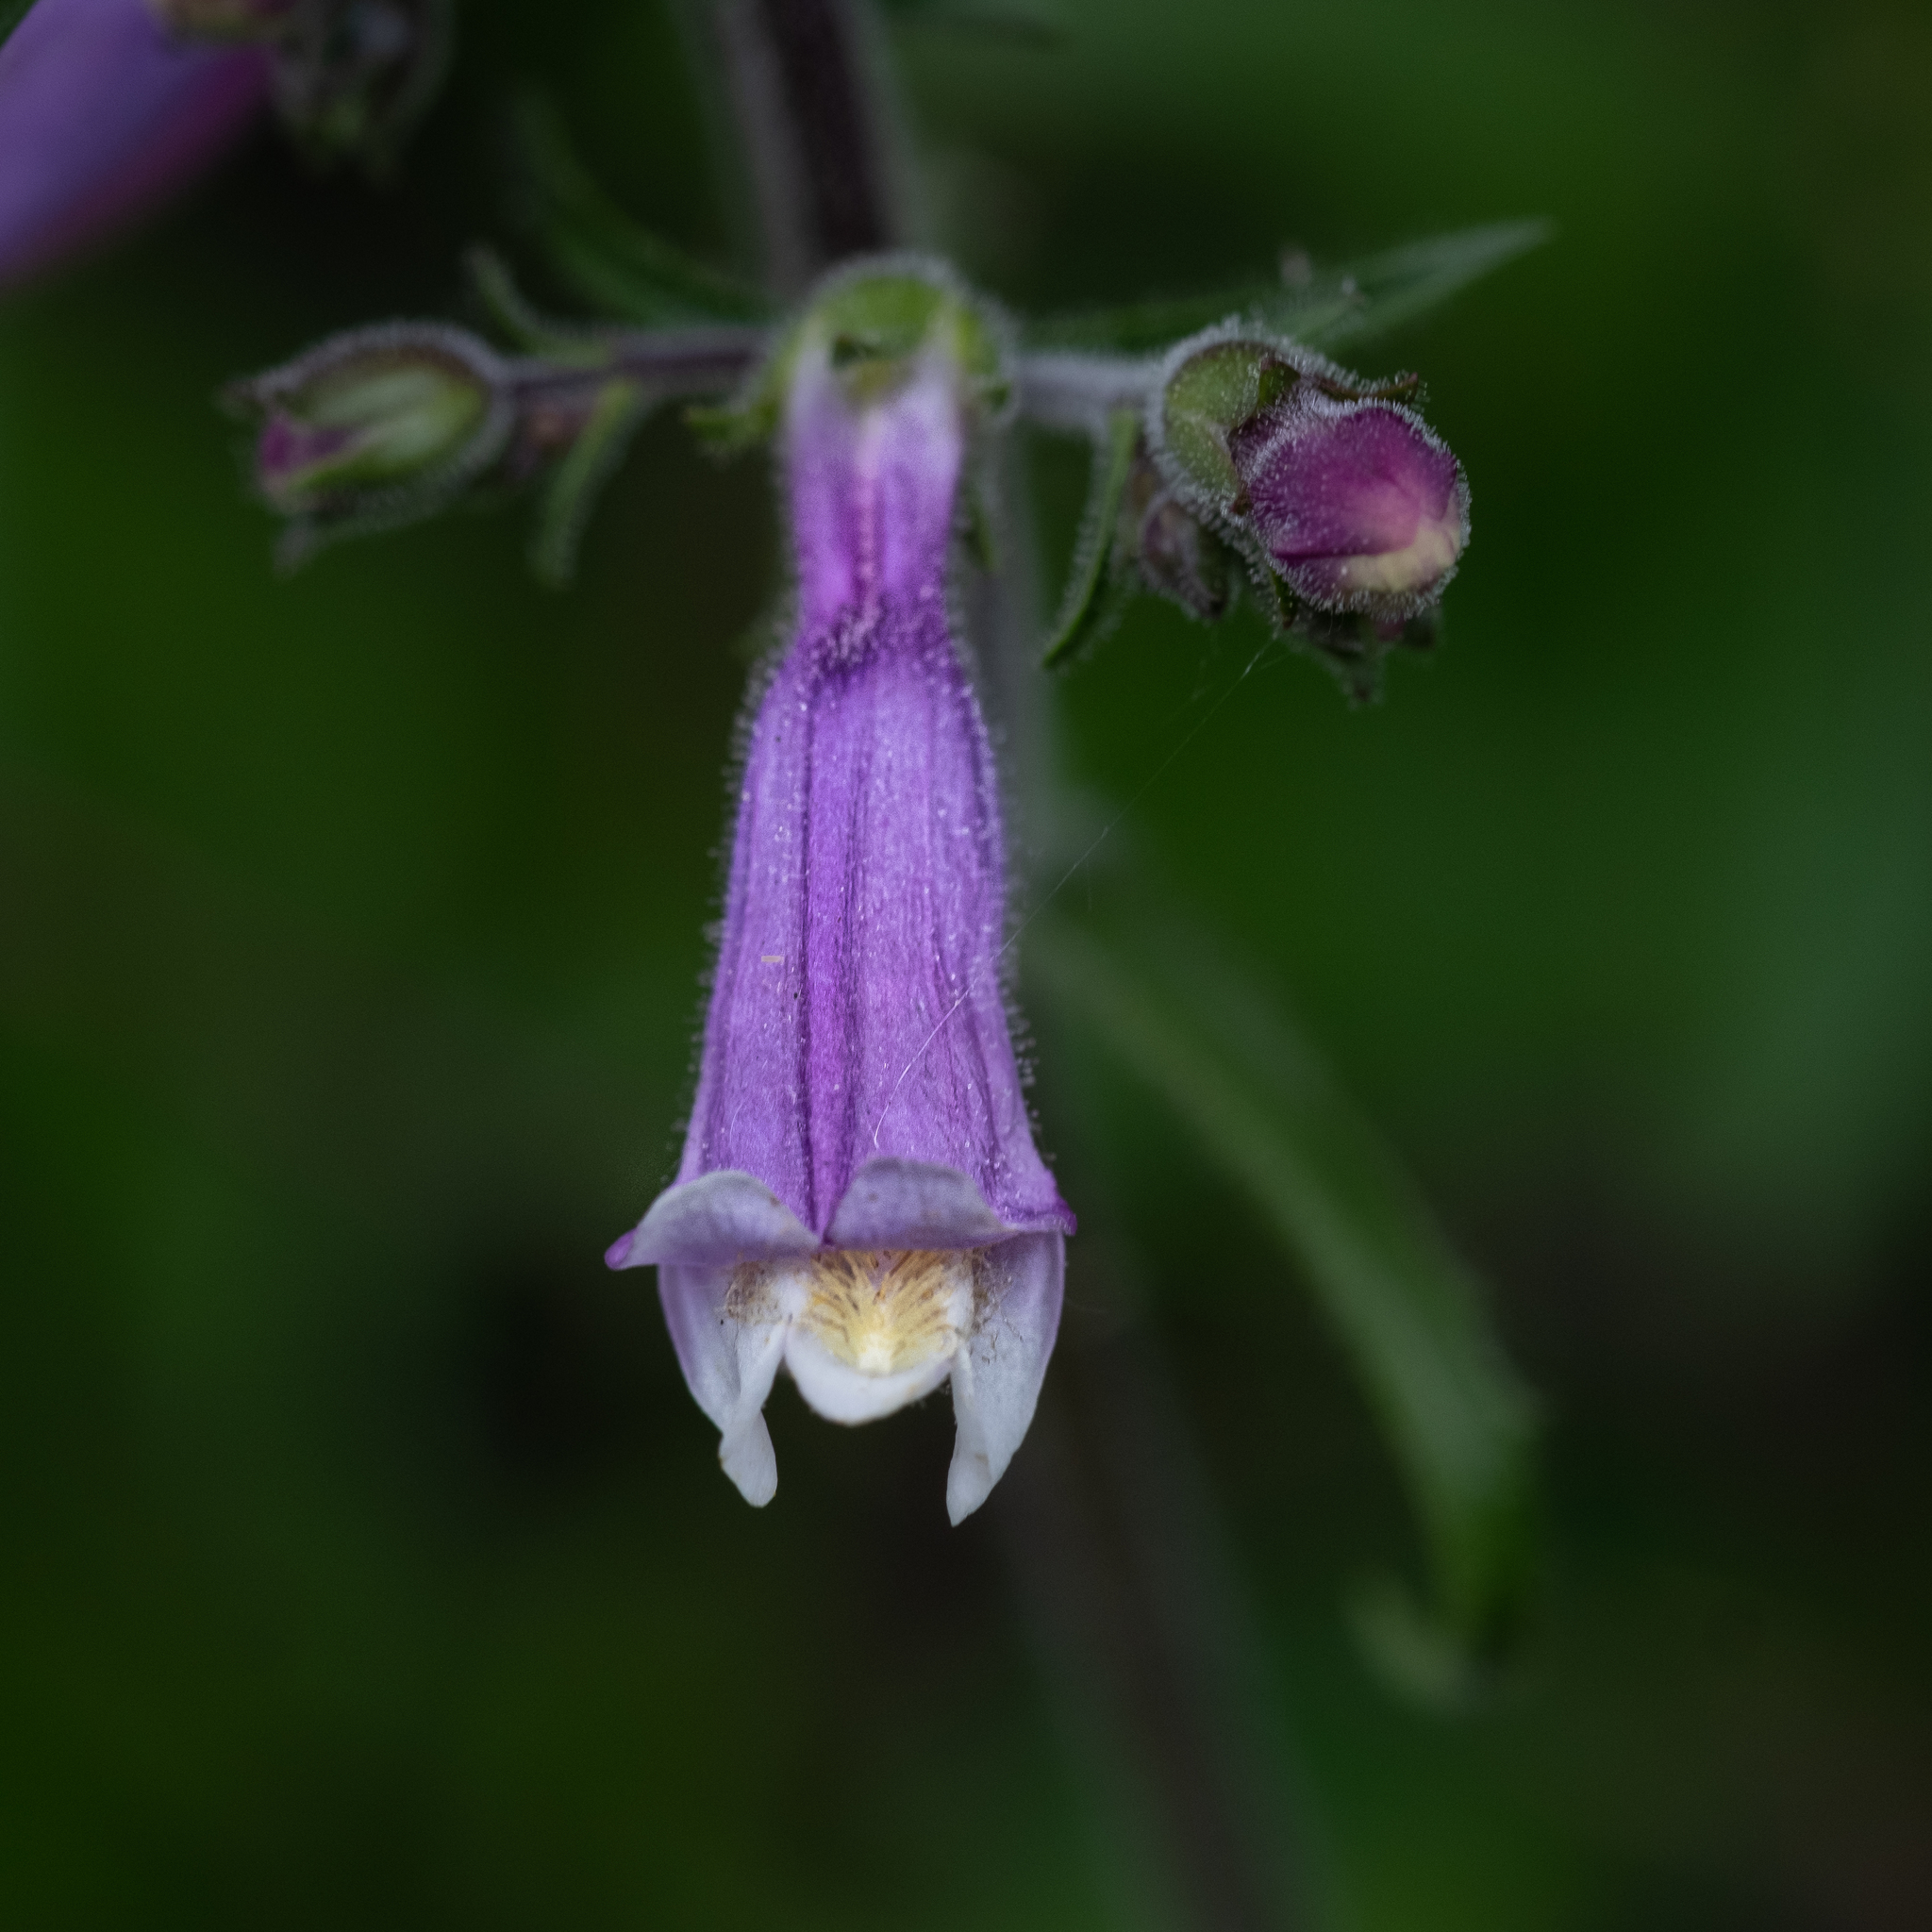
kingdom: Plantae
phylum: Tracheophyta
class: Magnoliopsida
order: Lamiales
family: Plantaginaceae
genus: Penstemon
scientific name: Penstemon hirsutus
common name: Hairy beardtongue
